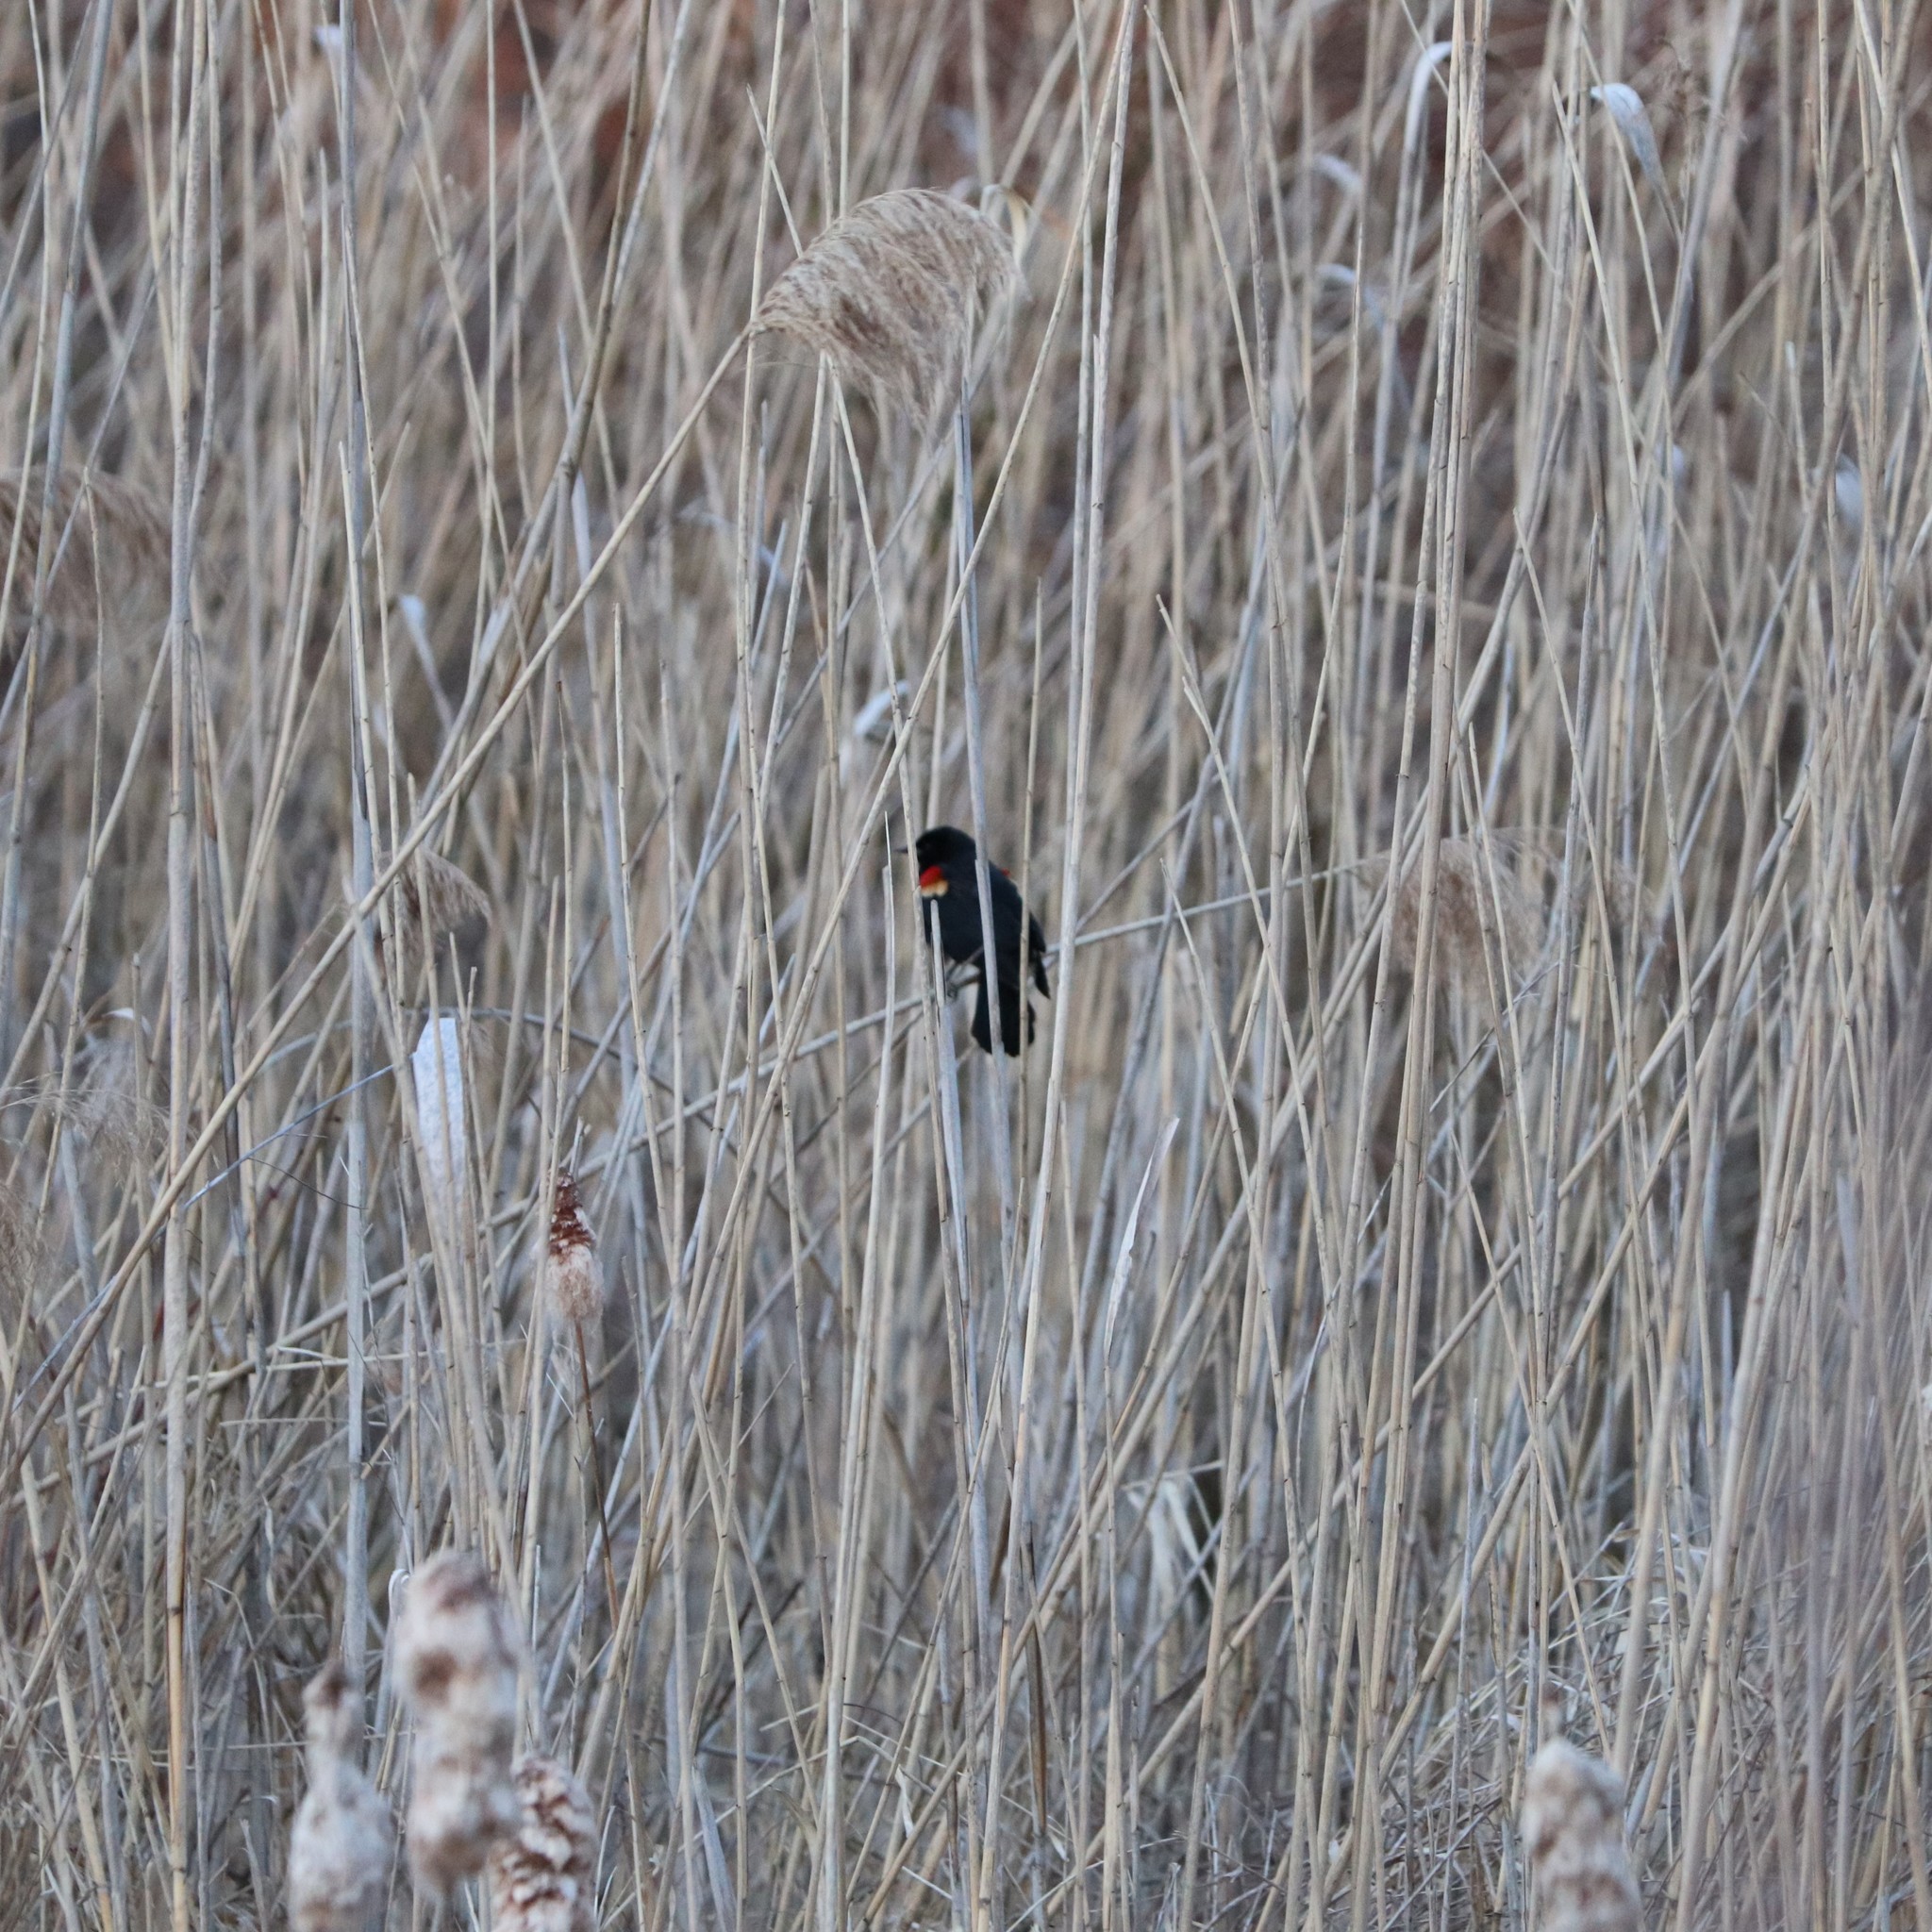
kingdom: Animalia
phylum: Chordata
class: Aves
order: Passeriformes
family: Icteridae
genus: Agelaius
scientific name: Agelaius phoeniceus
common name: Red-winged blackbird
